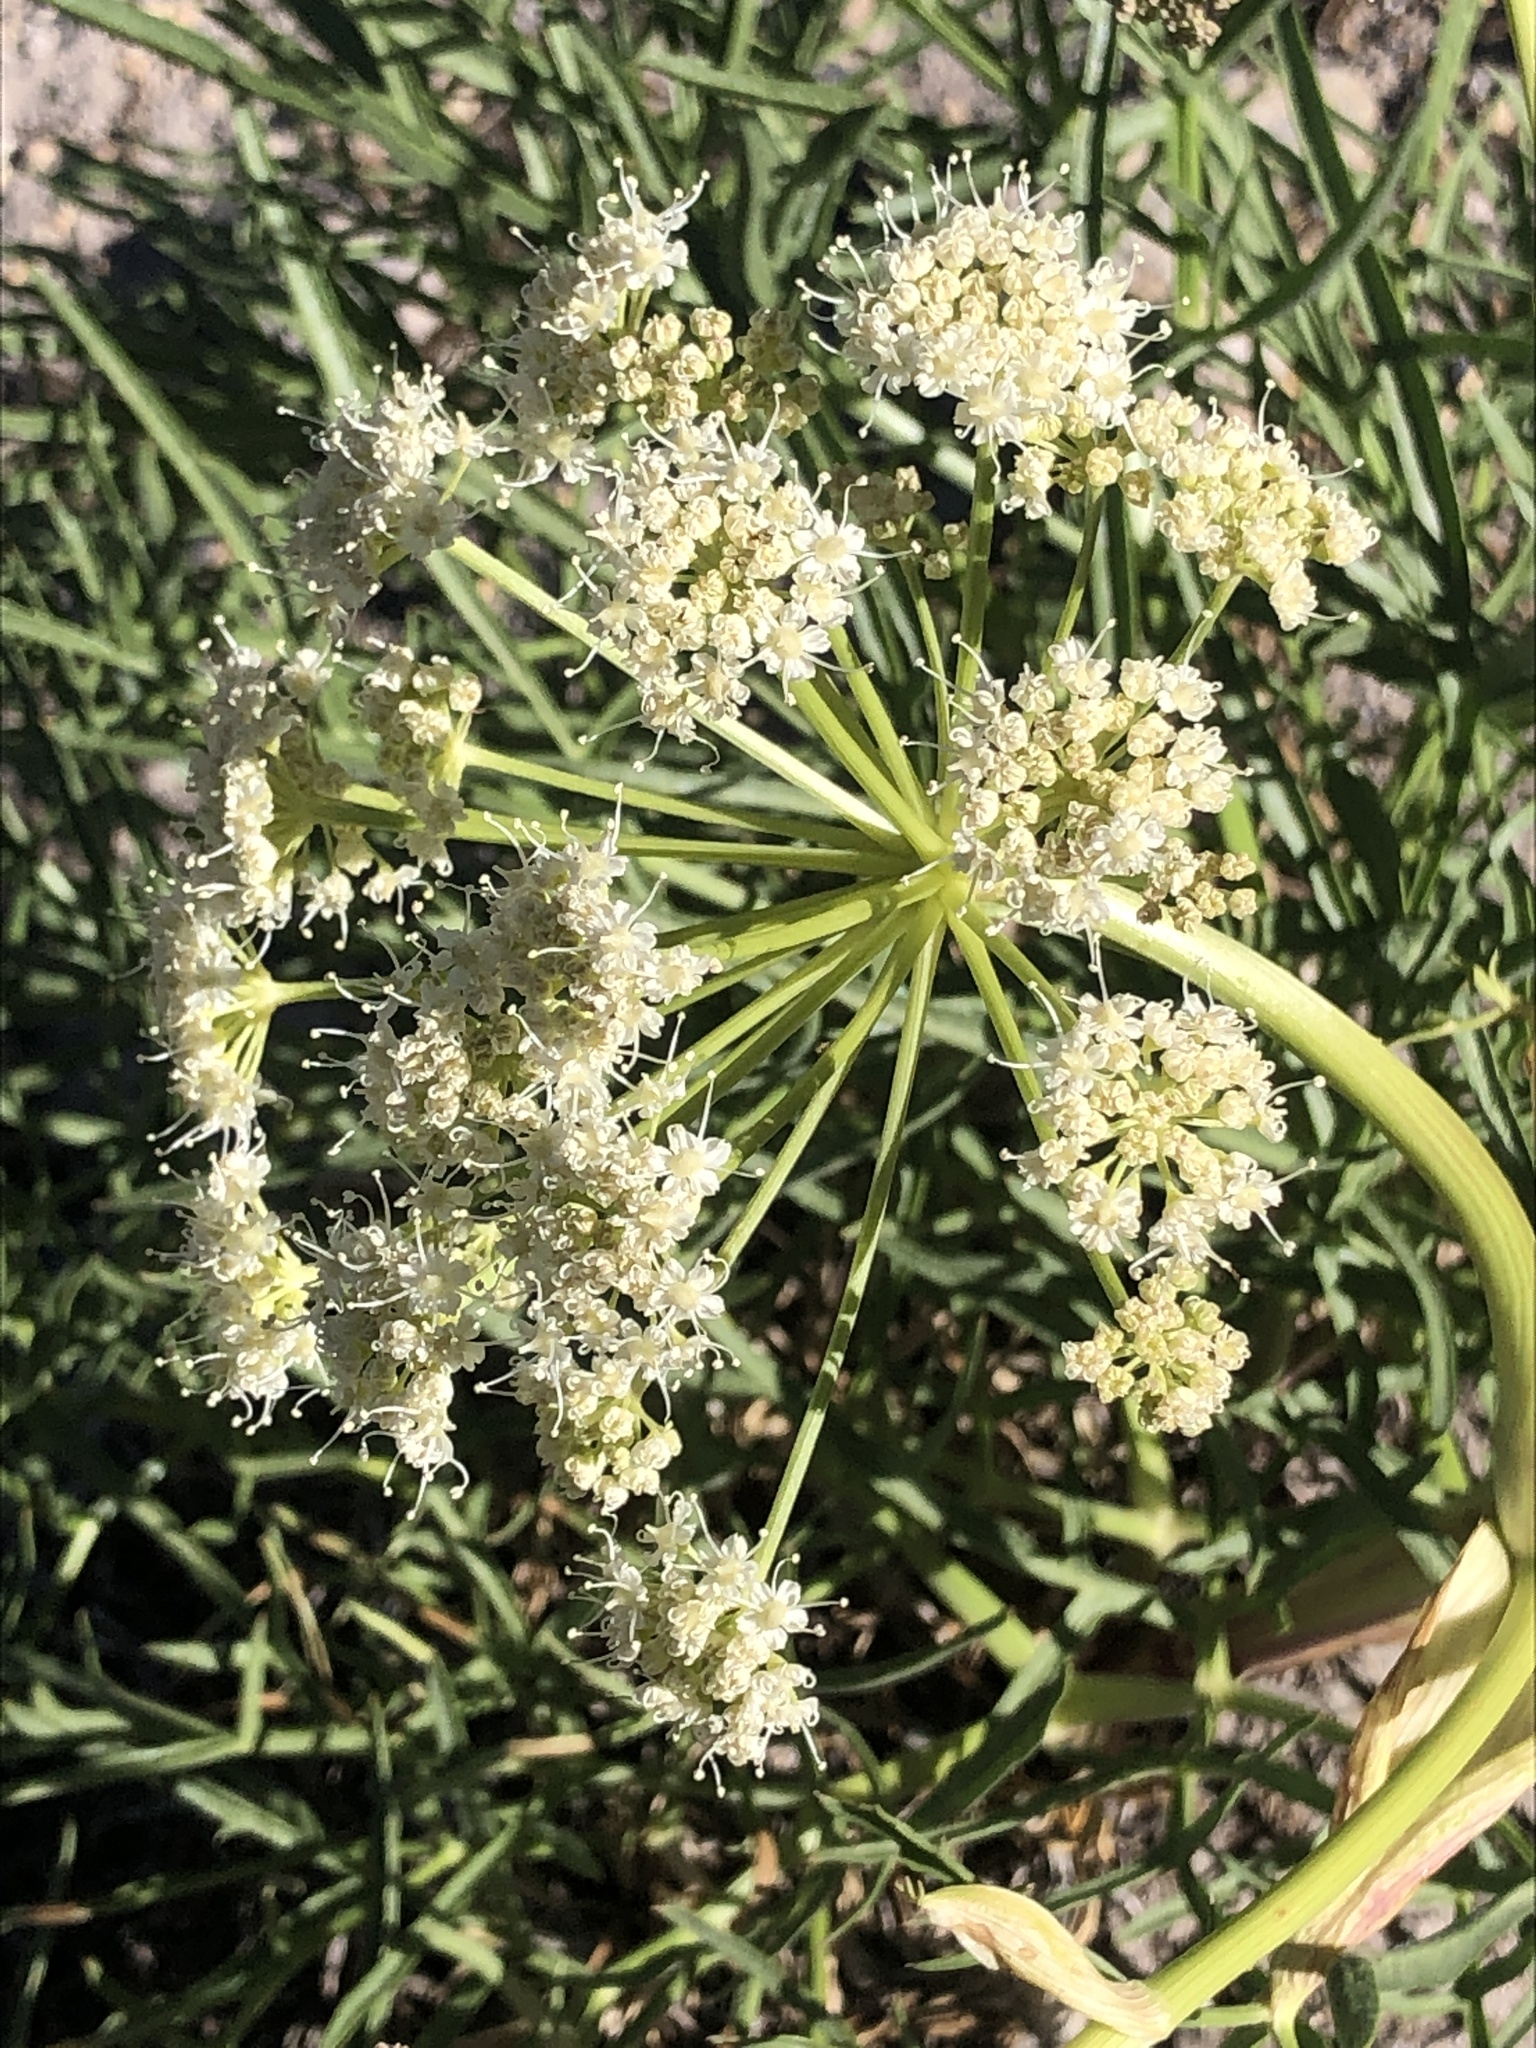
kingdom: Plantae
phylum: Tracheophyta
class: Magnoliopsida
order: Apiales
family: Apiaceae
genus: Angelica
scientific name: Angelica lineariloba
